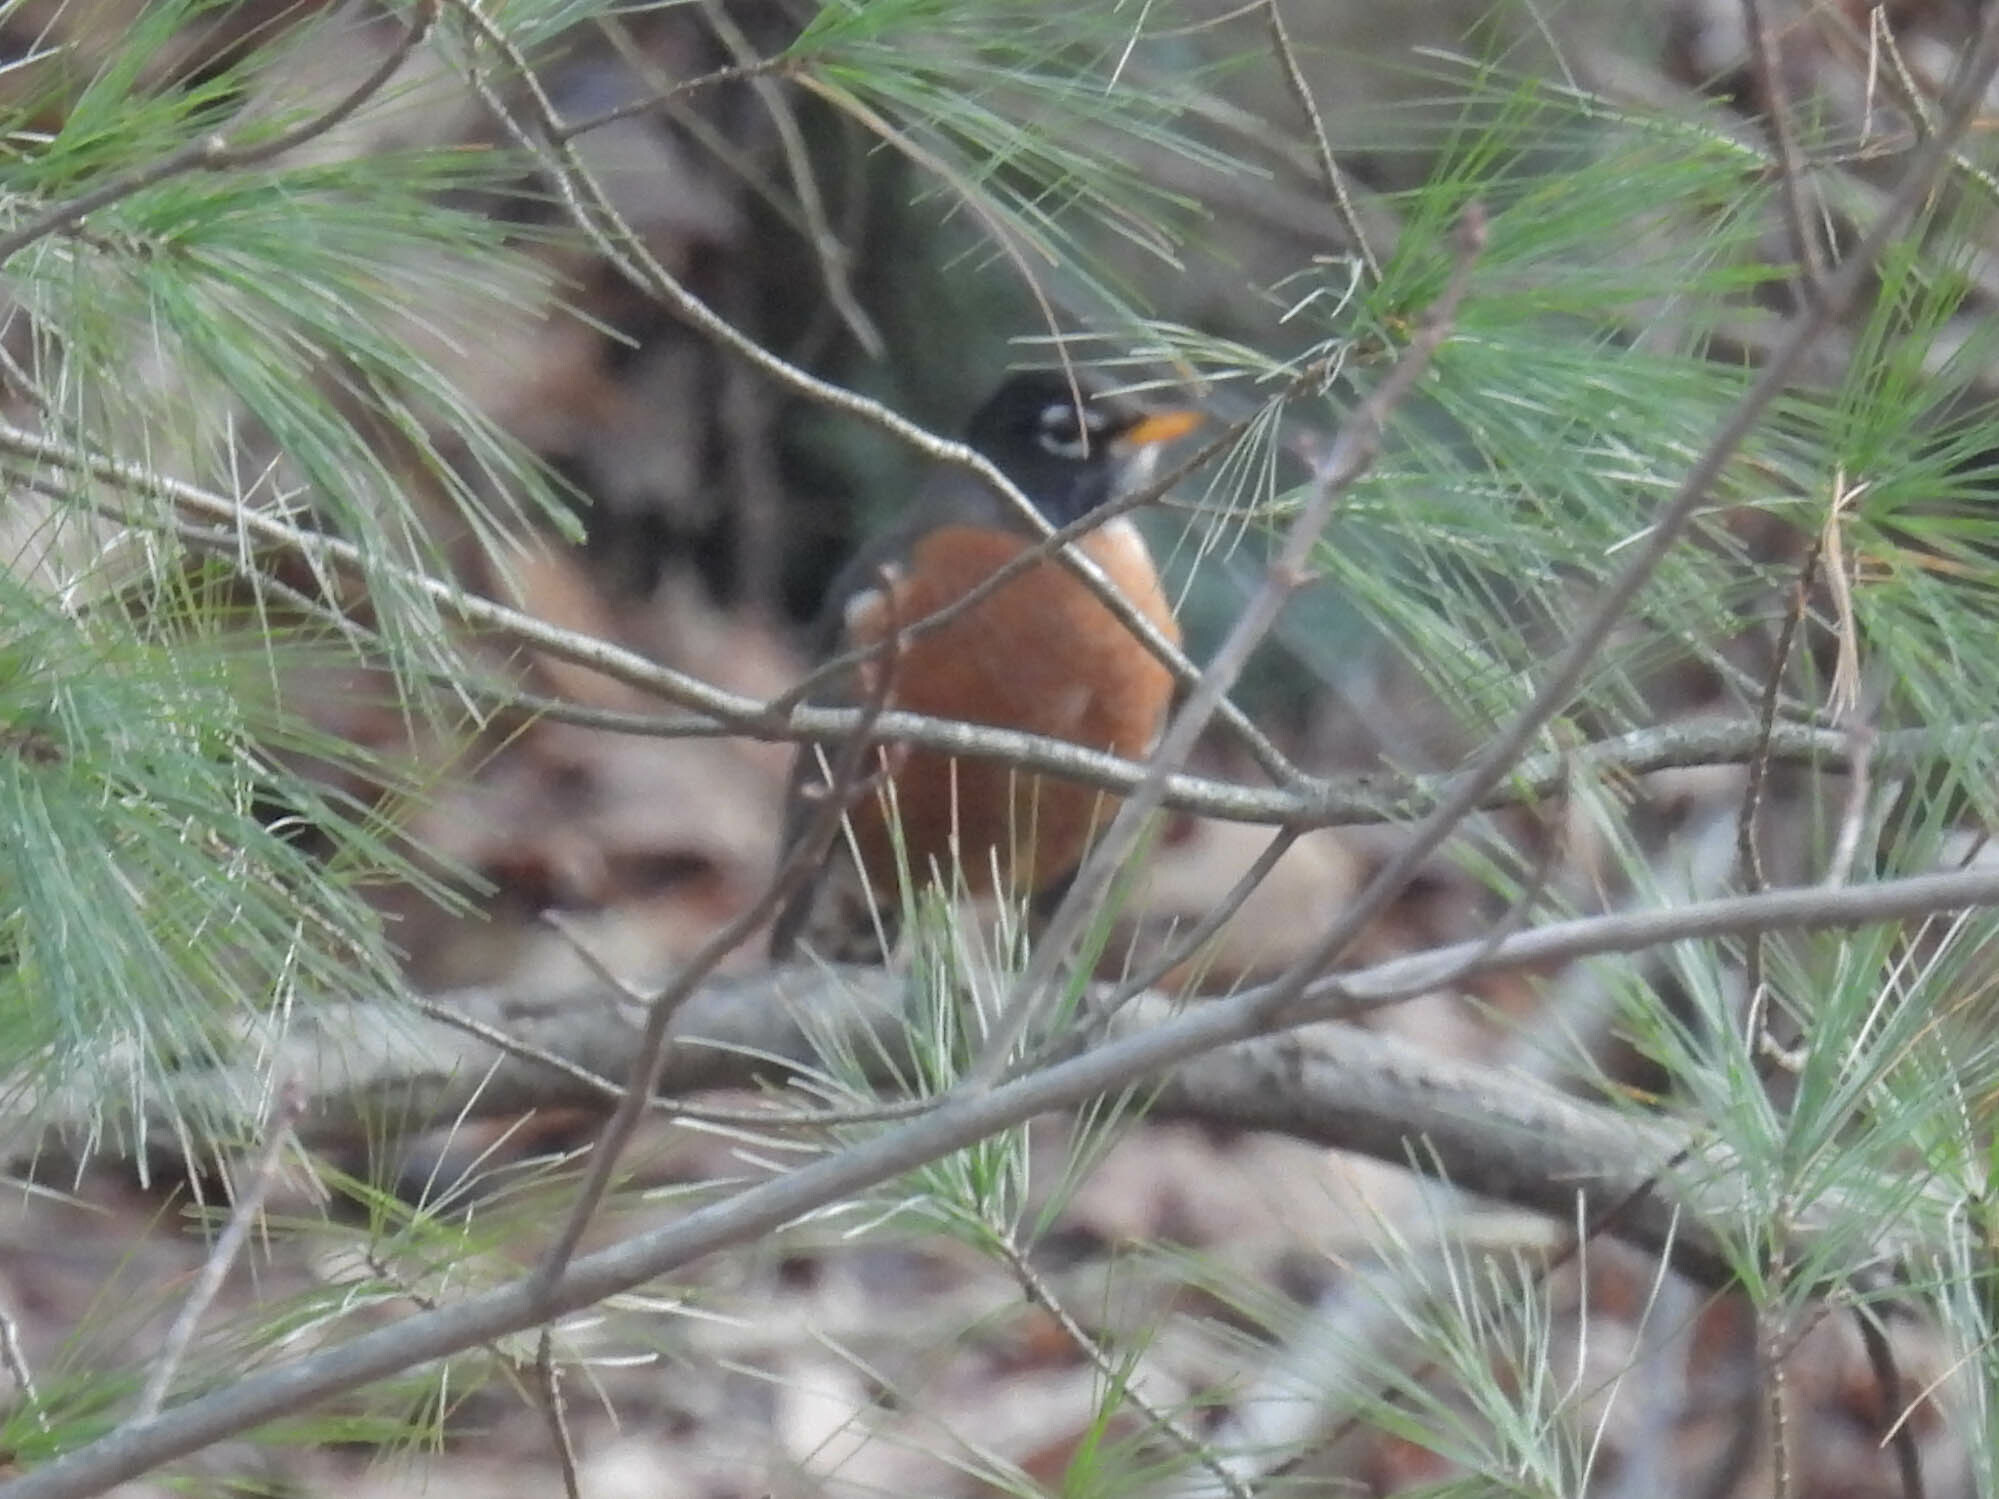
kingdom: Animalia
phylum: Chordata
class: Aves
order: Passeriformes
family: Turdidae
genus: Turdus
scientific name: Turdus migratorius
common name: American robin
